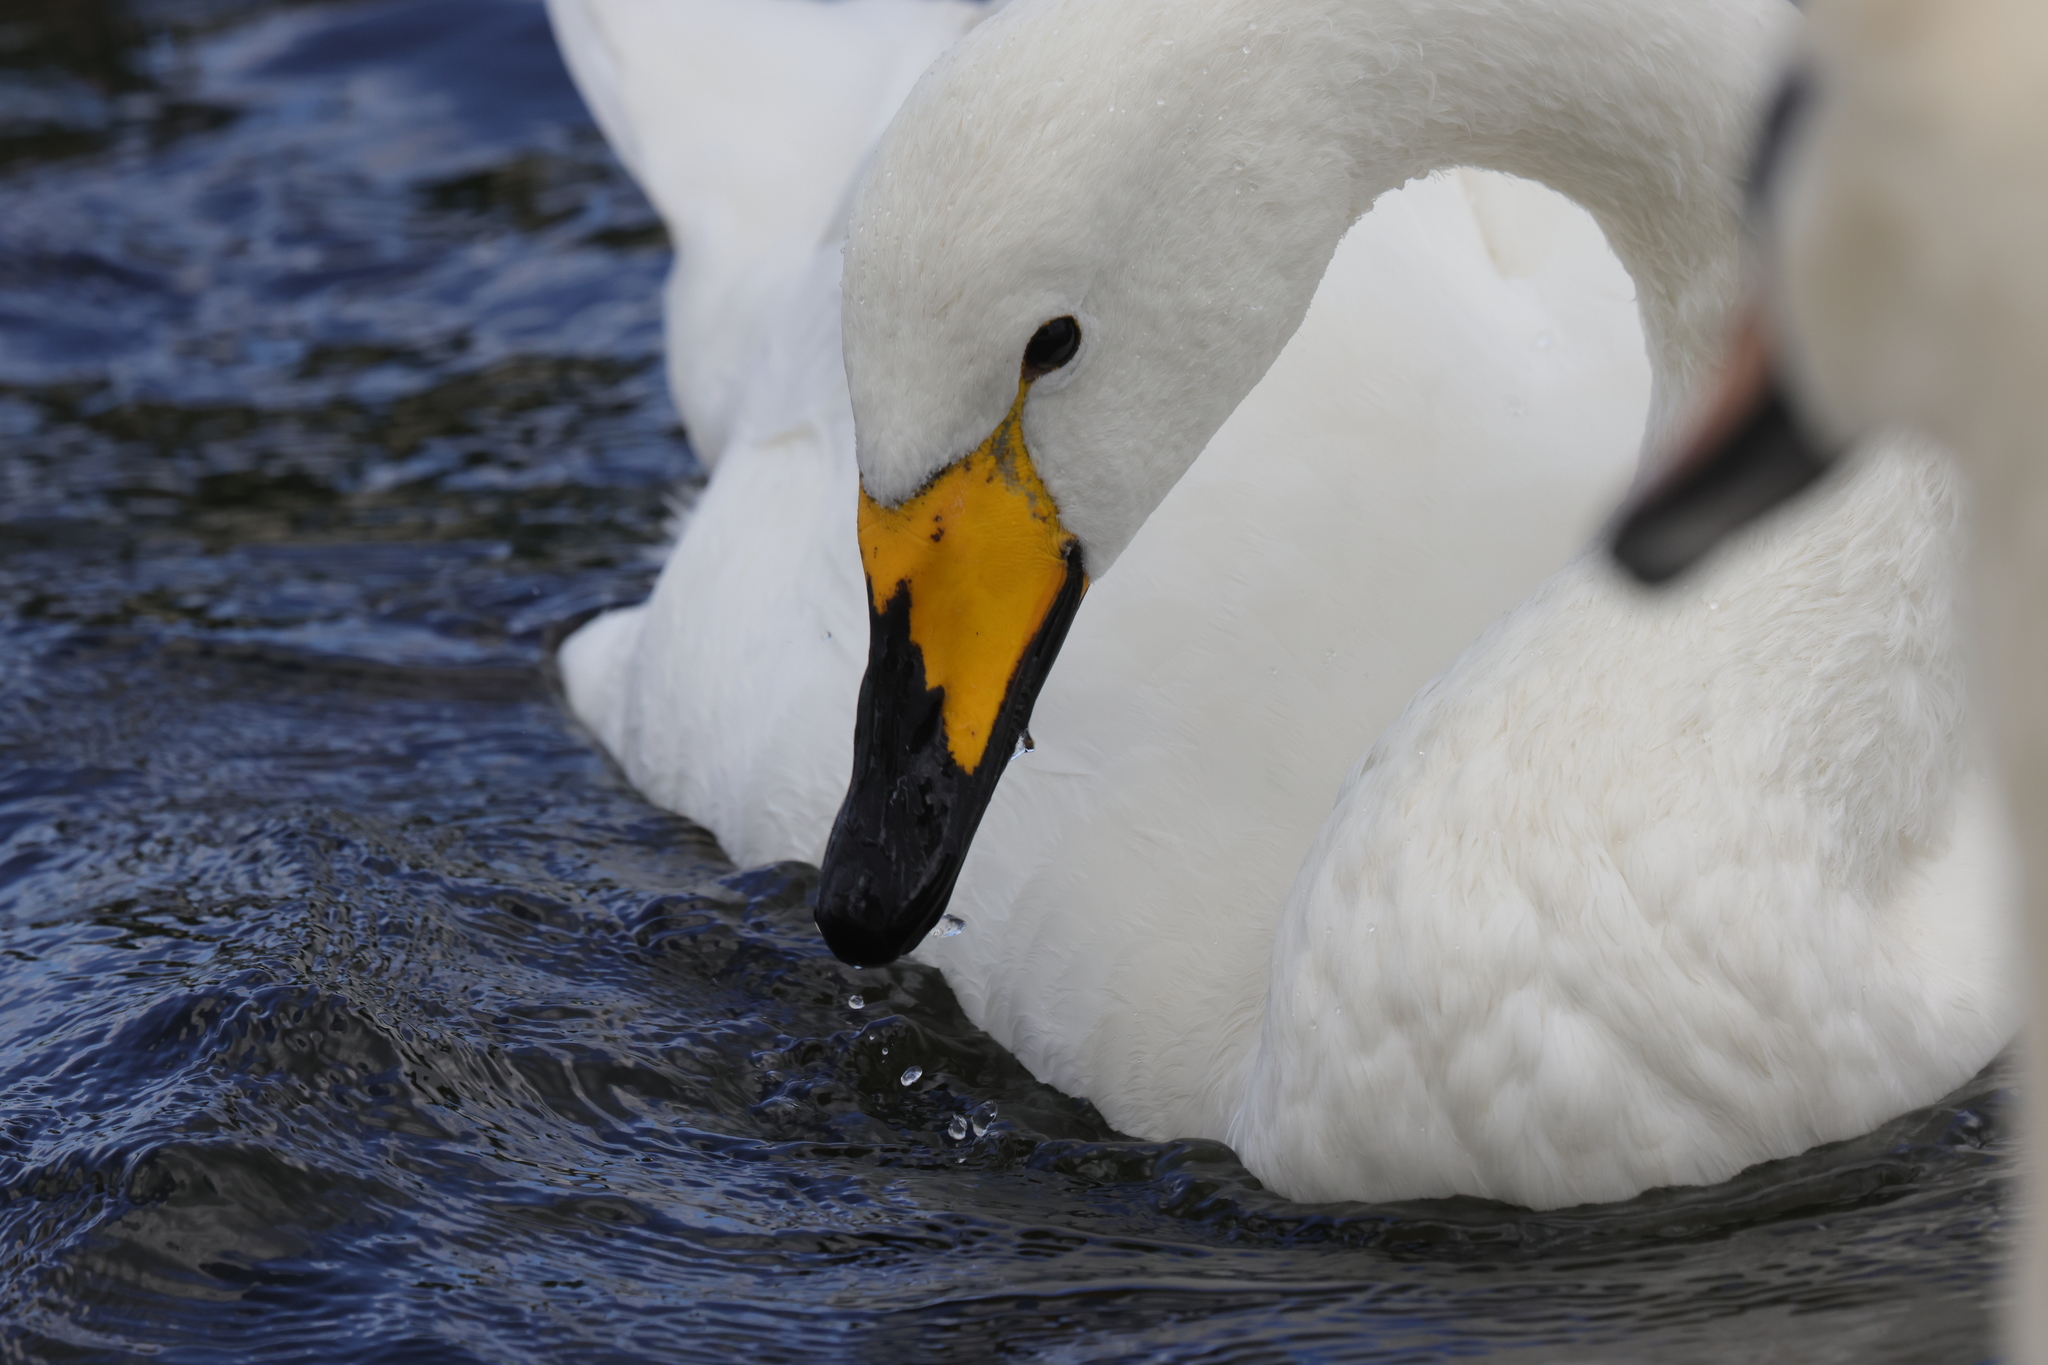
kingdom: Animalia
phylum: Chordata
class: Aves
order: Anseriformes
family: Anatidae
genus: Cygnus
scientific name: Cygnus cygnus
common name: Whooper swan
